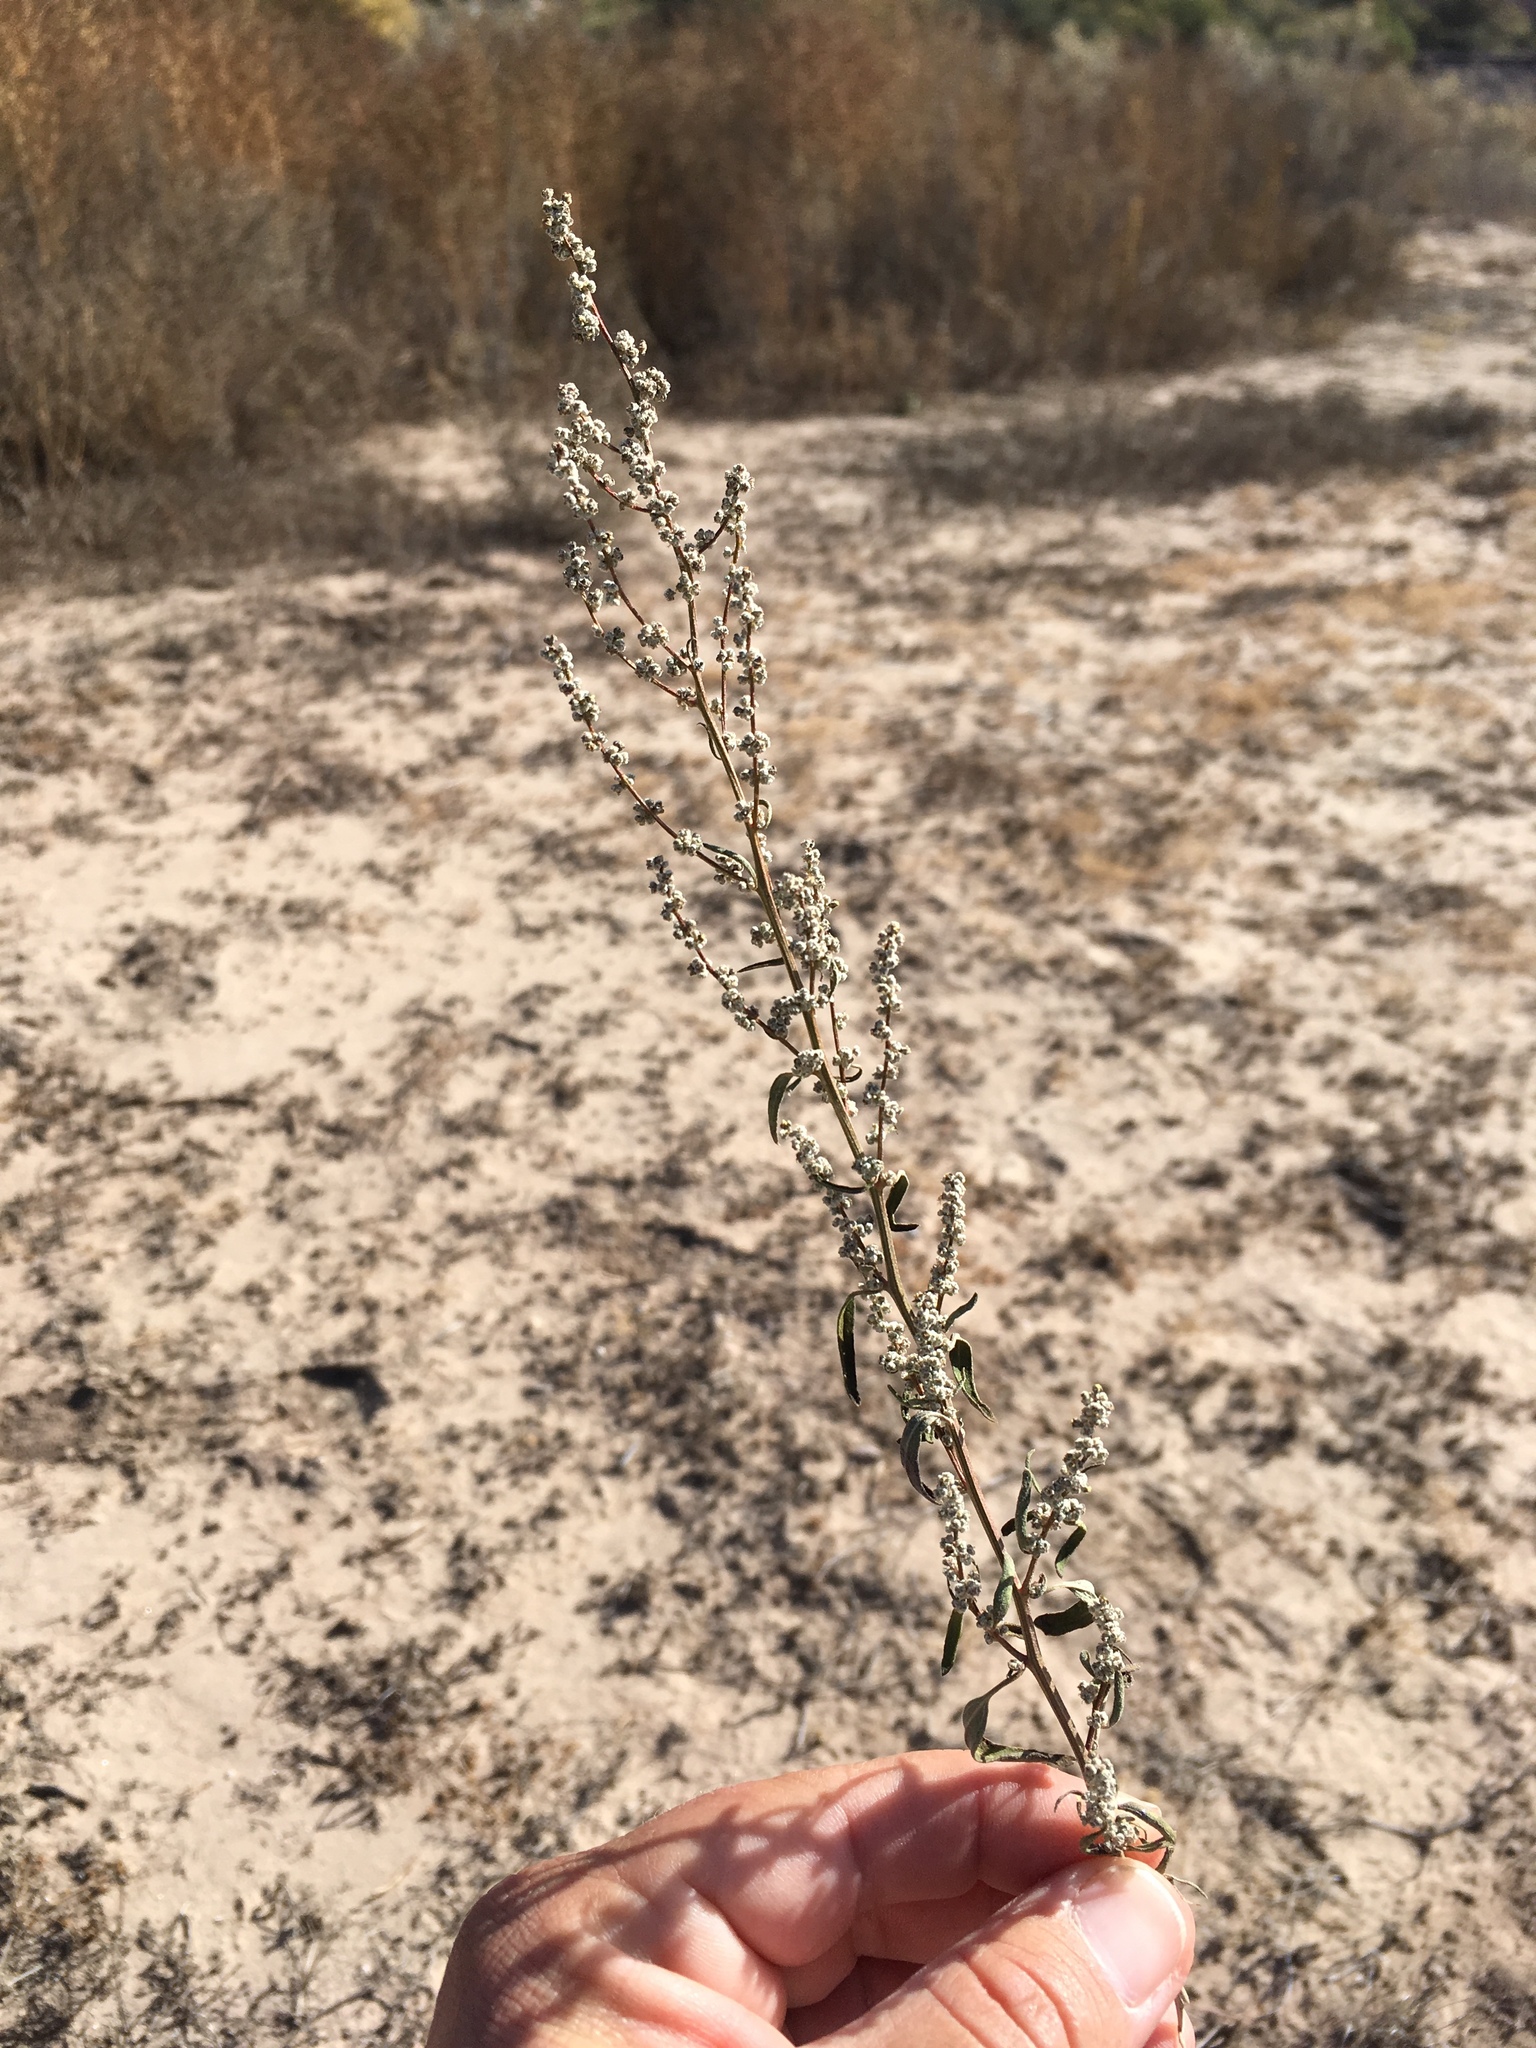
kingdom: Plantae
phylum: Tracheophyta
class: Magnoliopsida
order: Caryophyllales
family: Amaranthaceae
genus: Chenopodium
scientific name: Chenopodium desiccatum
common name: Slimleaf goosefoot
